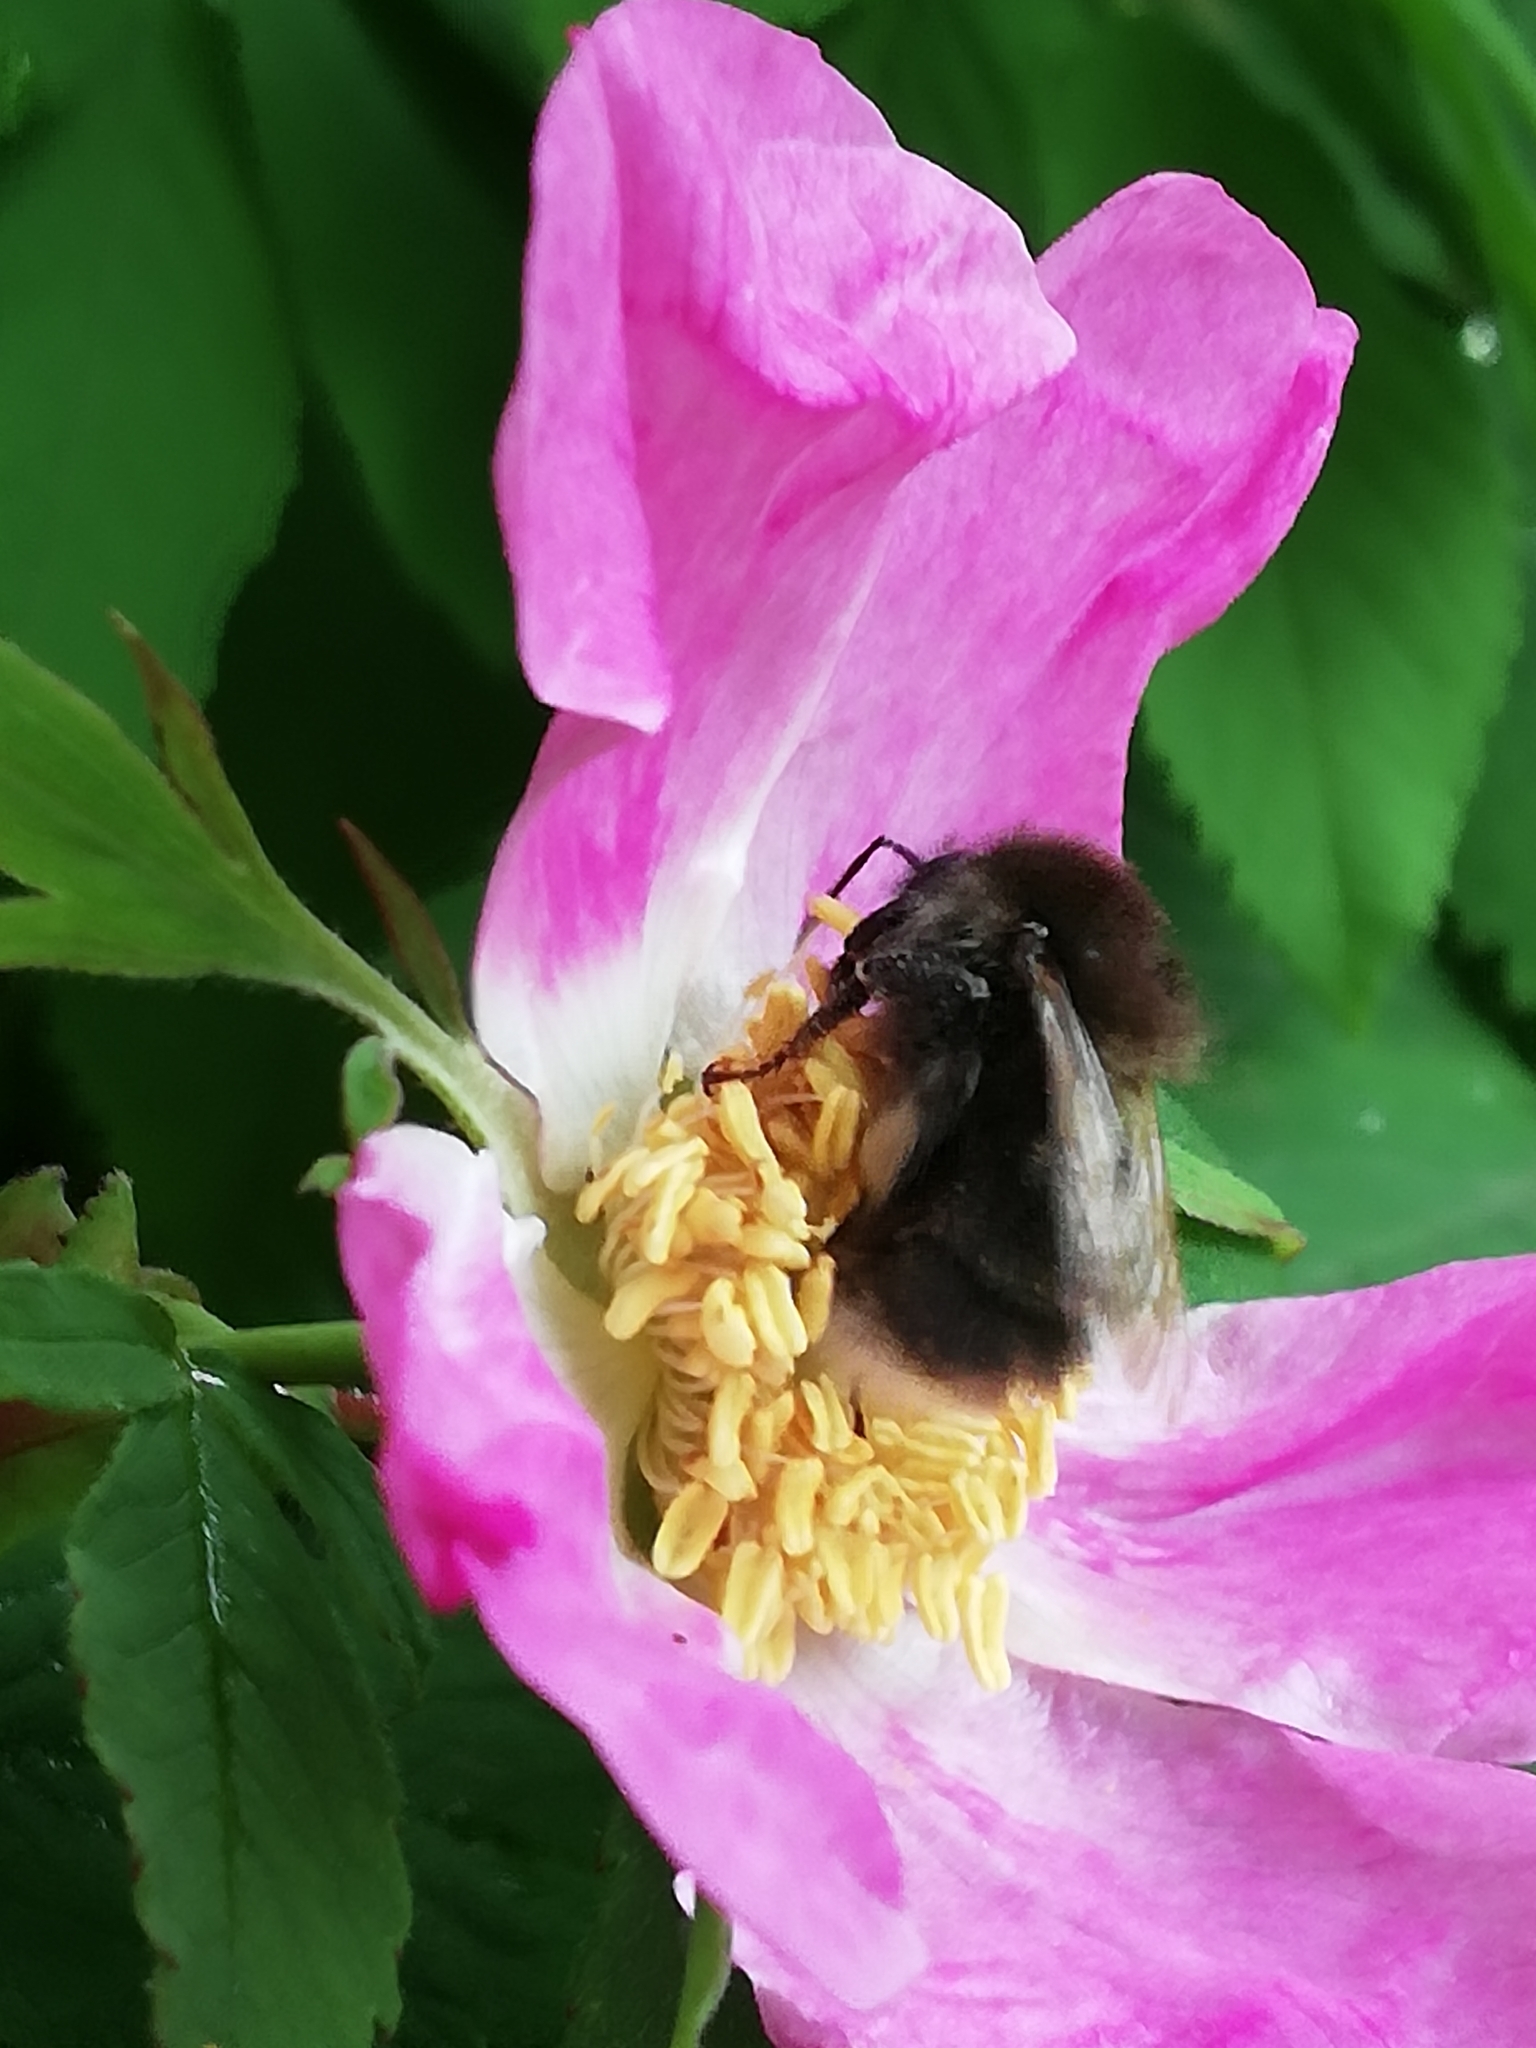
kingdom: Animalia
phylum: Arthropoda
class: Insecta
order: Hymenoptera
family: Apidae
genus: Bombus
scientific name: Bombus hypnorum
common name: New garden bumblebee
